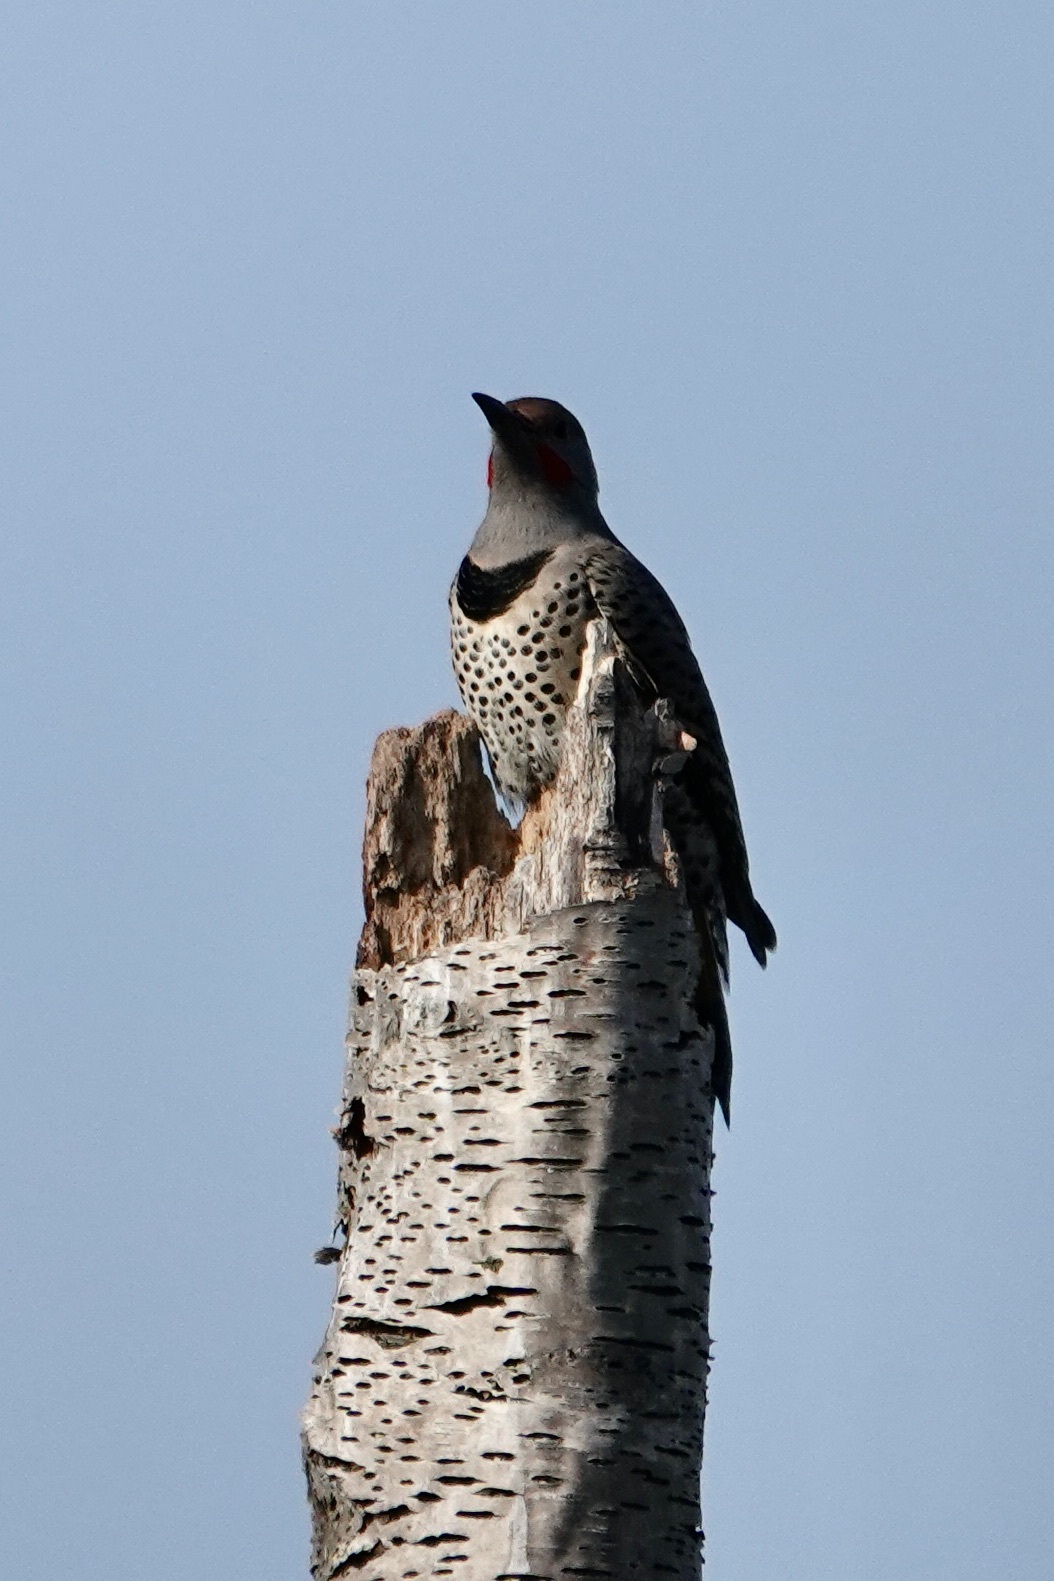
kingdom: Animalia
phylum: Chordata
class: Aves
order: Piciformes
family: Picidae
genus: Colaptes
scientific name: Colaptes auratus
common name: Northern flicker
